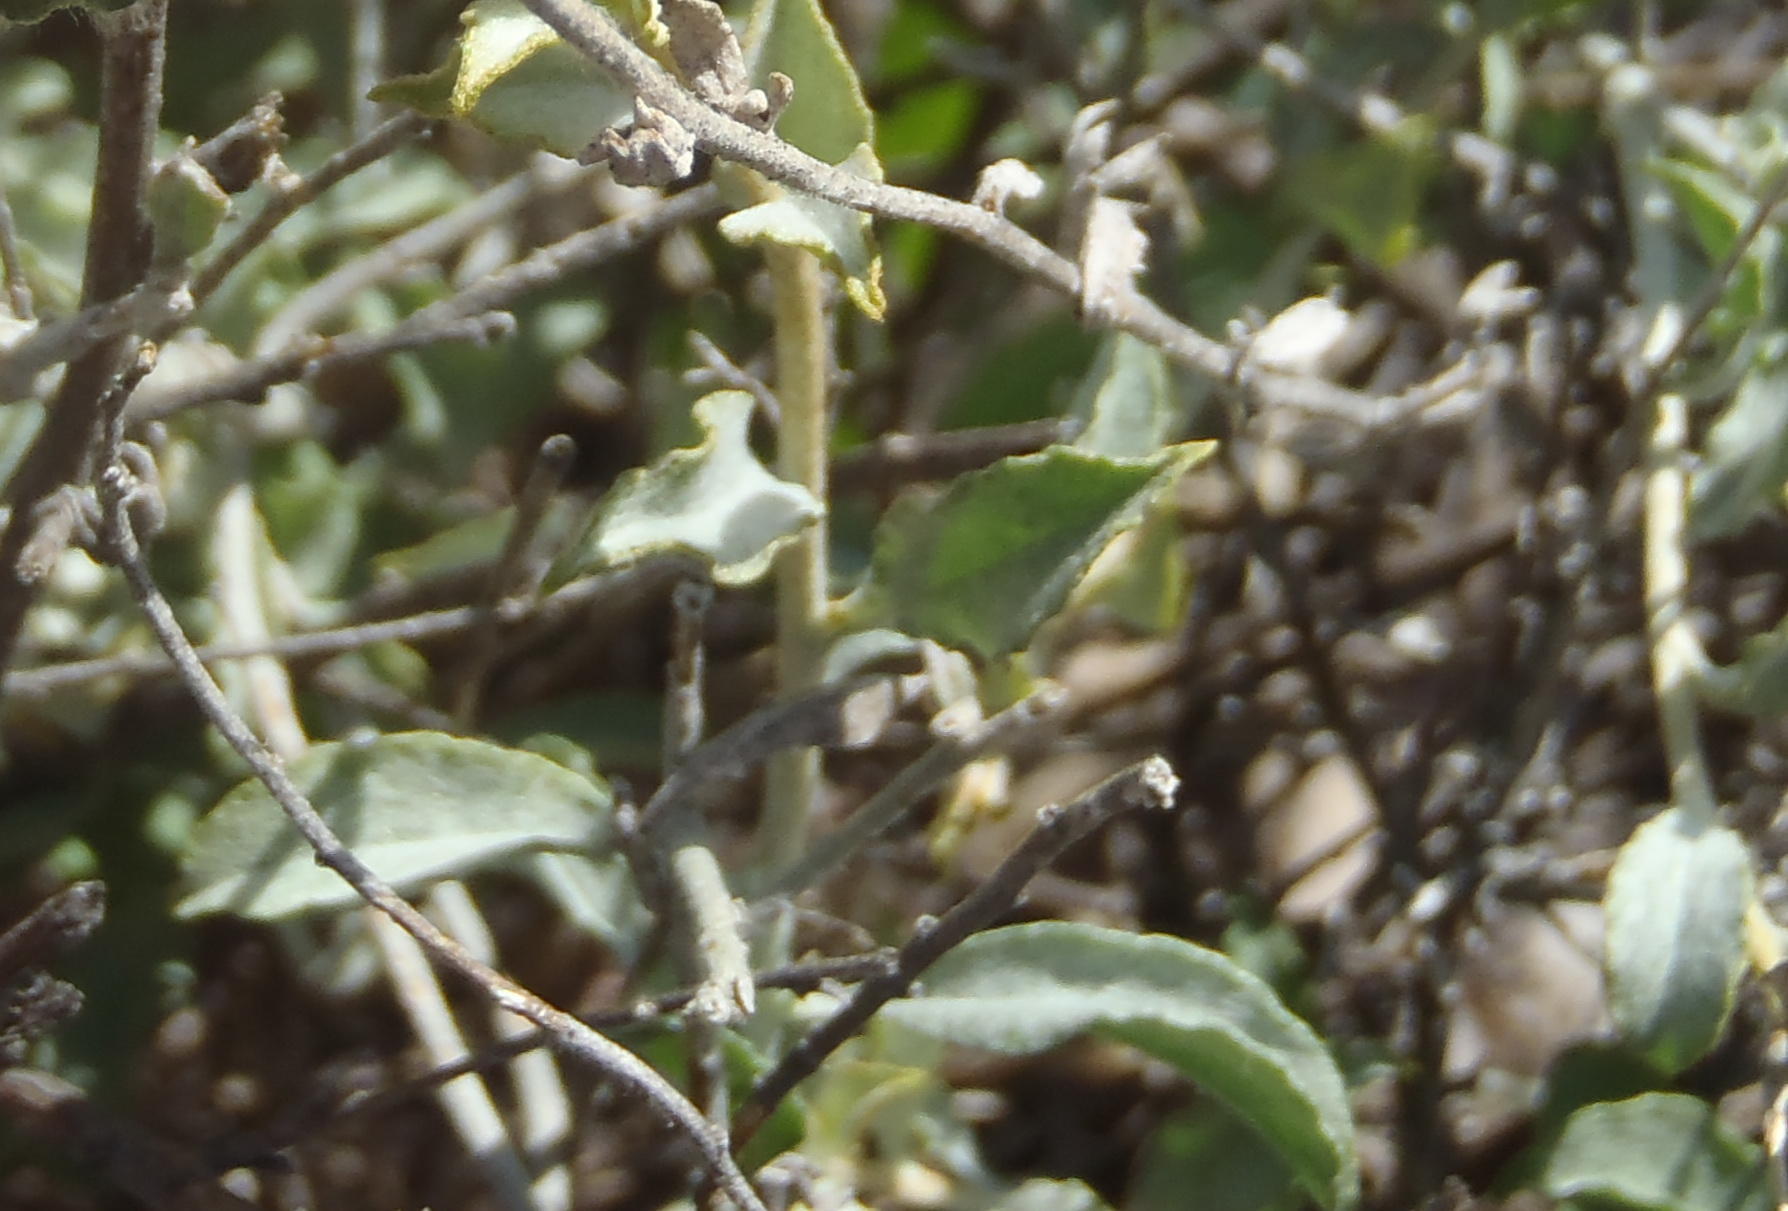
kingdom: Plantae
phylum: Tracheophyta
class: Magnoliopsida
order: Asterales
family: Asteraceae
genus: Helichrysum
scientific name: Helichrysum zeyheri
